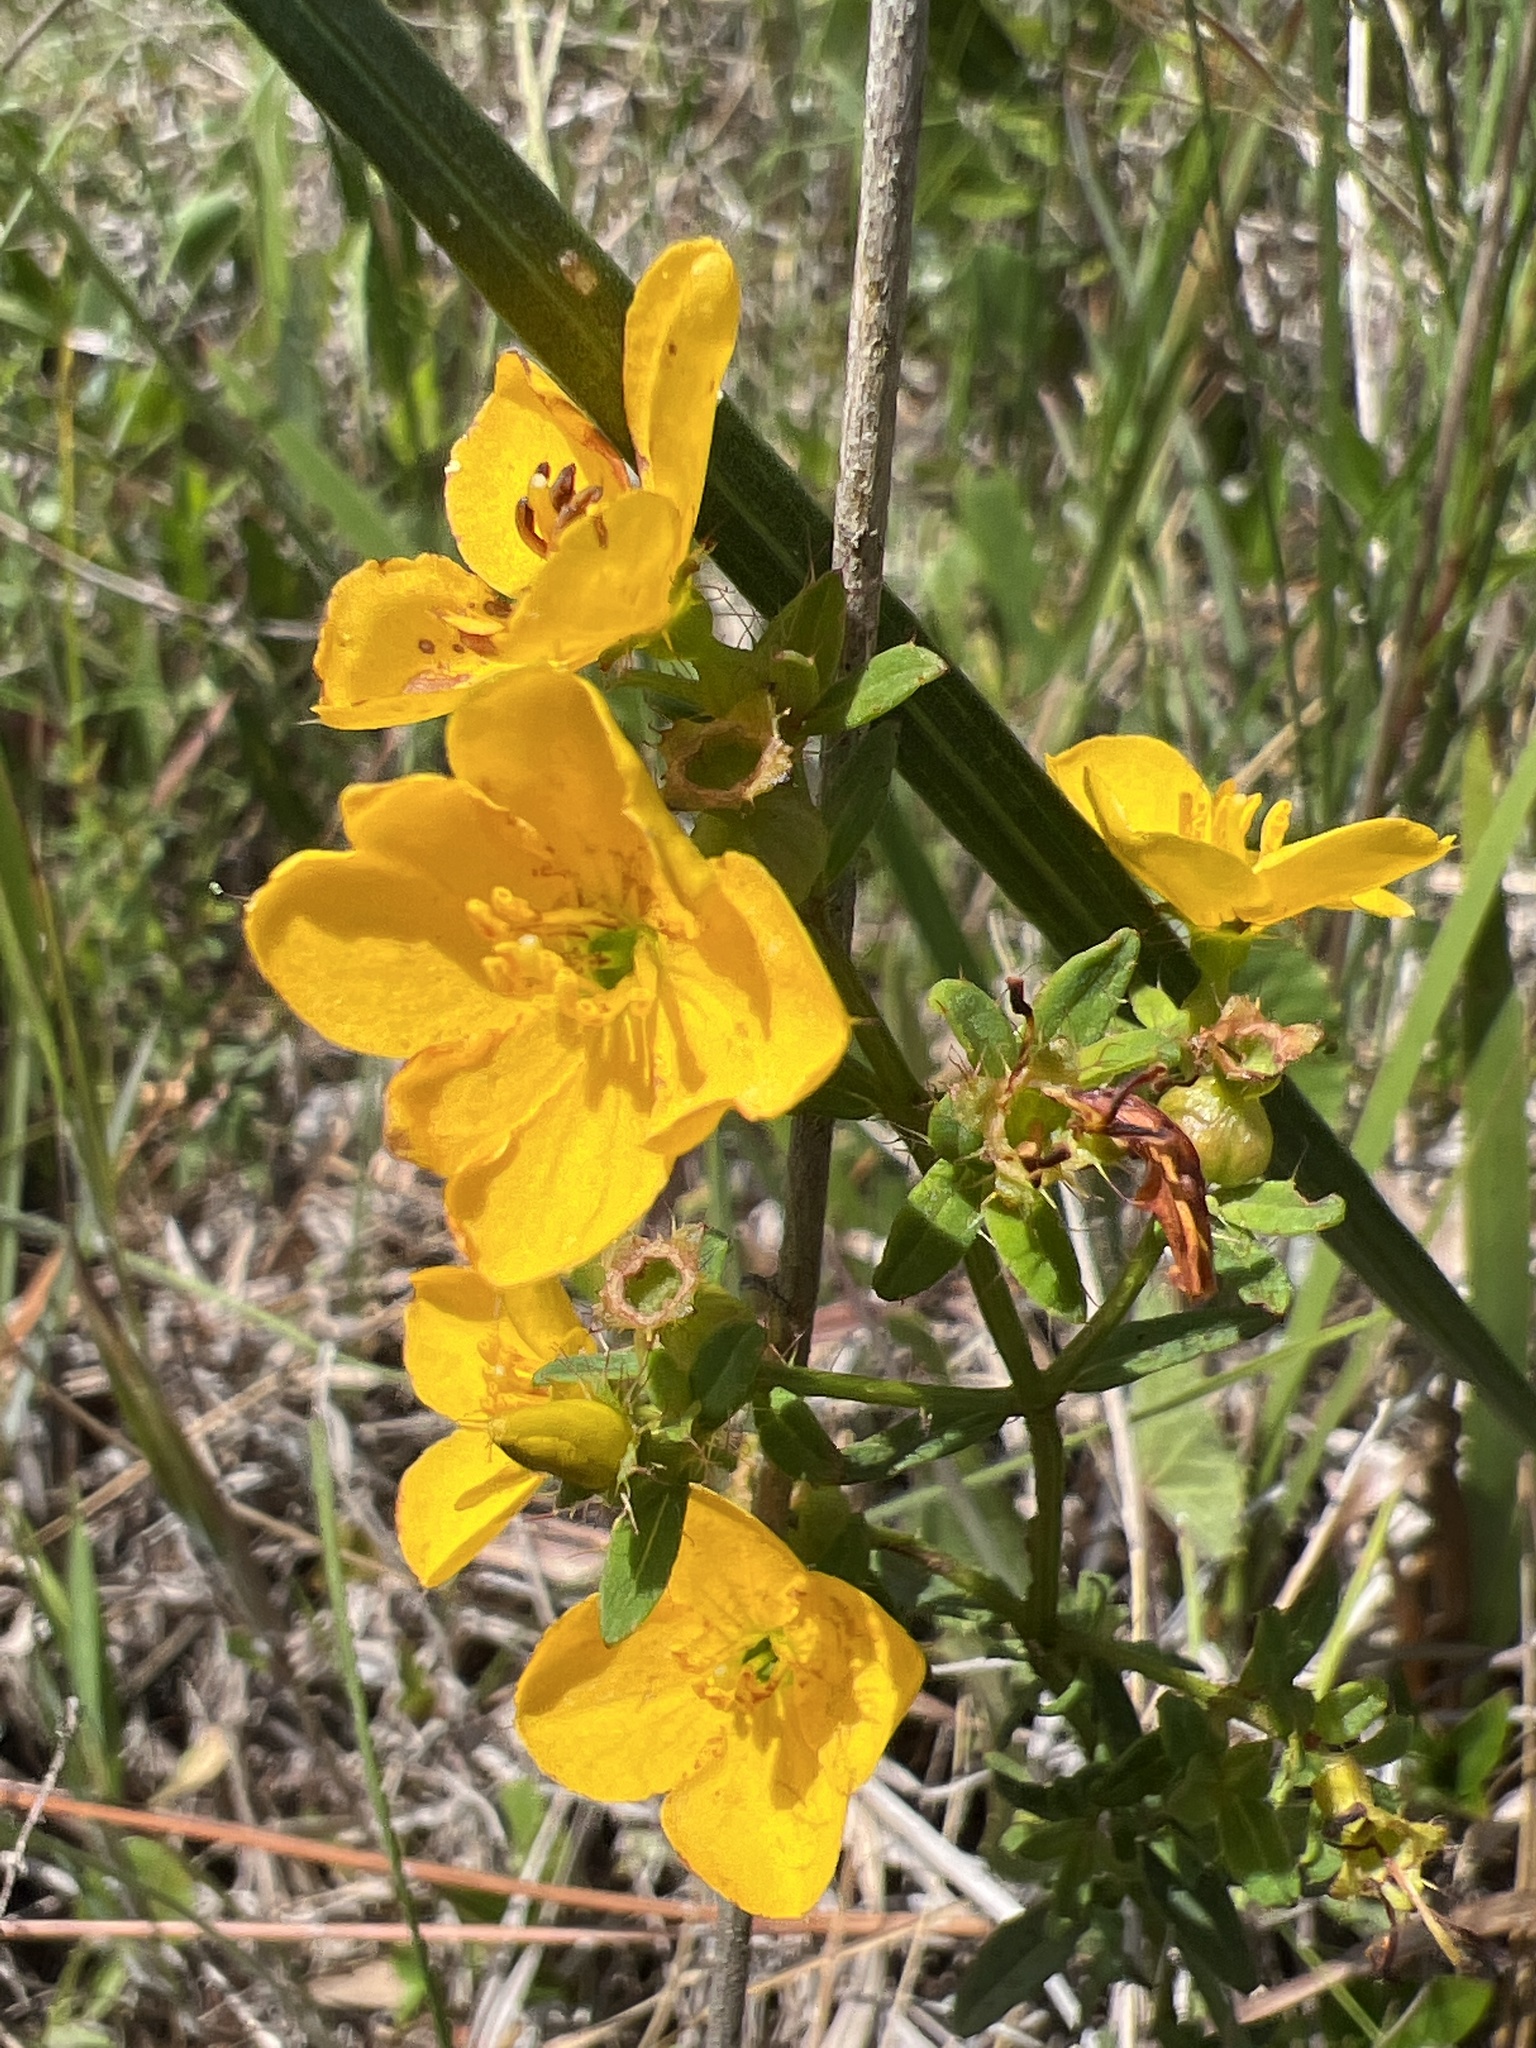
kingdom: Plantae
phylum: Tracheophyta
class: Magnoliopsida
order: Myrtales
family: Melastomataceae
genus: Rhexia
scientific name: Rhexia lutea
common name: Golden meadow-beauty
